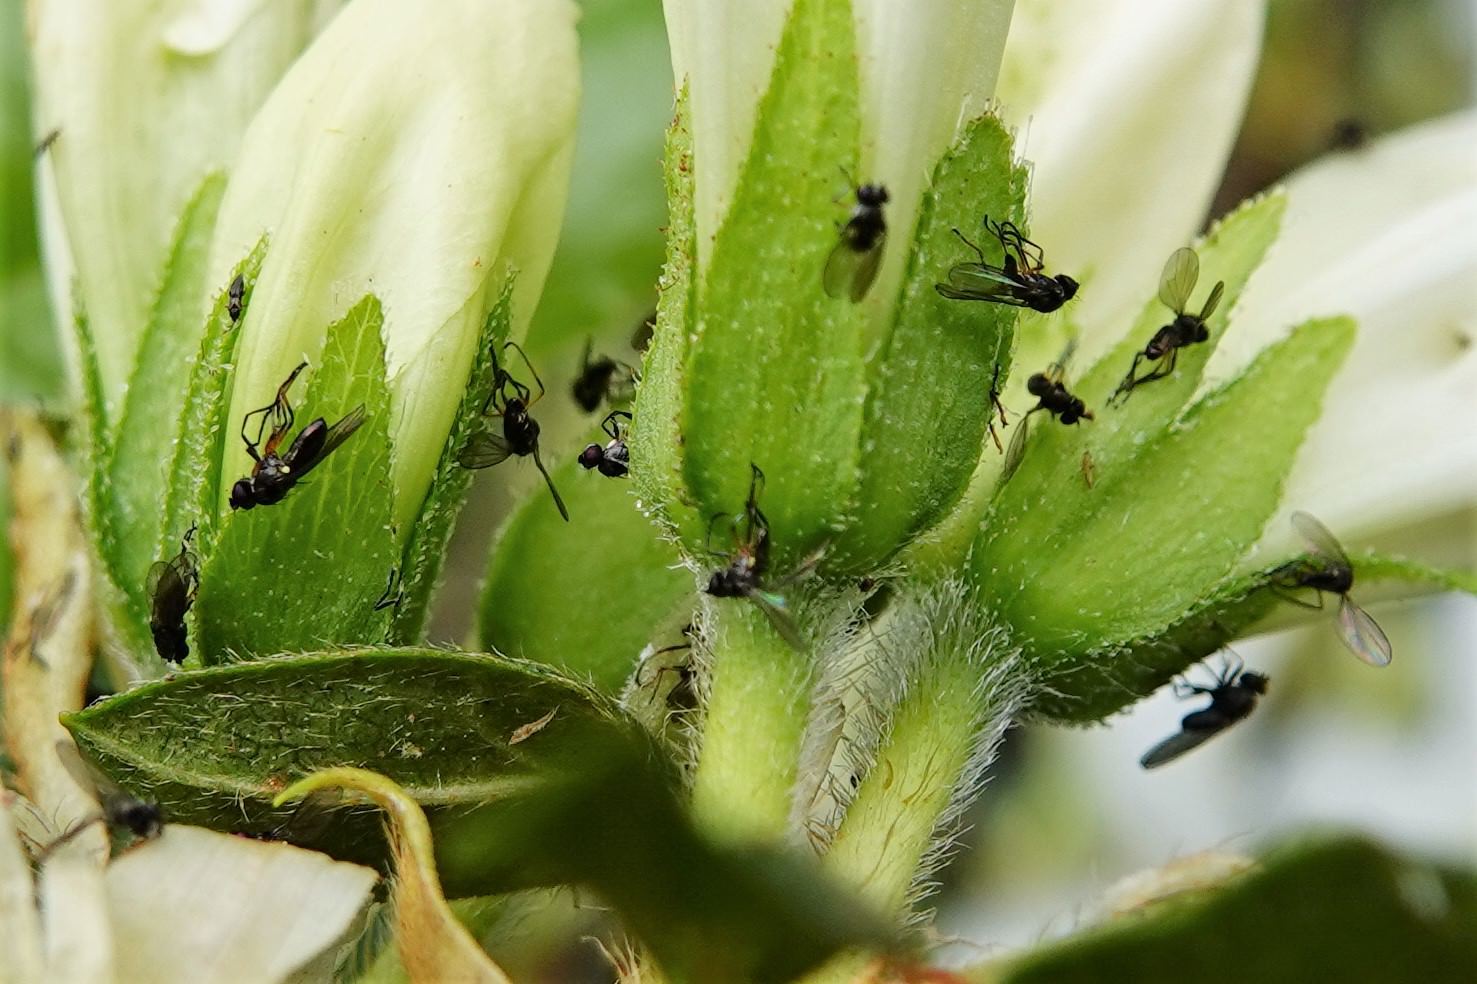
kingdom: Animalia
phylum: Arthropoda
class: Insecta
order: Diptera
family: Ephydridae
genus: Hydrellia
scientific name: Hydrellia tritici
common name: Shore fly
